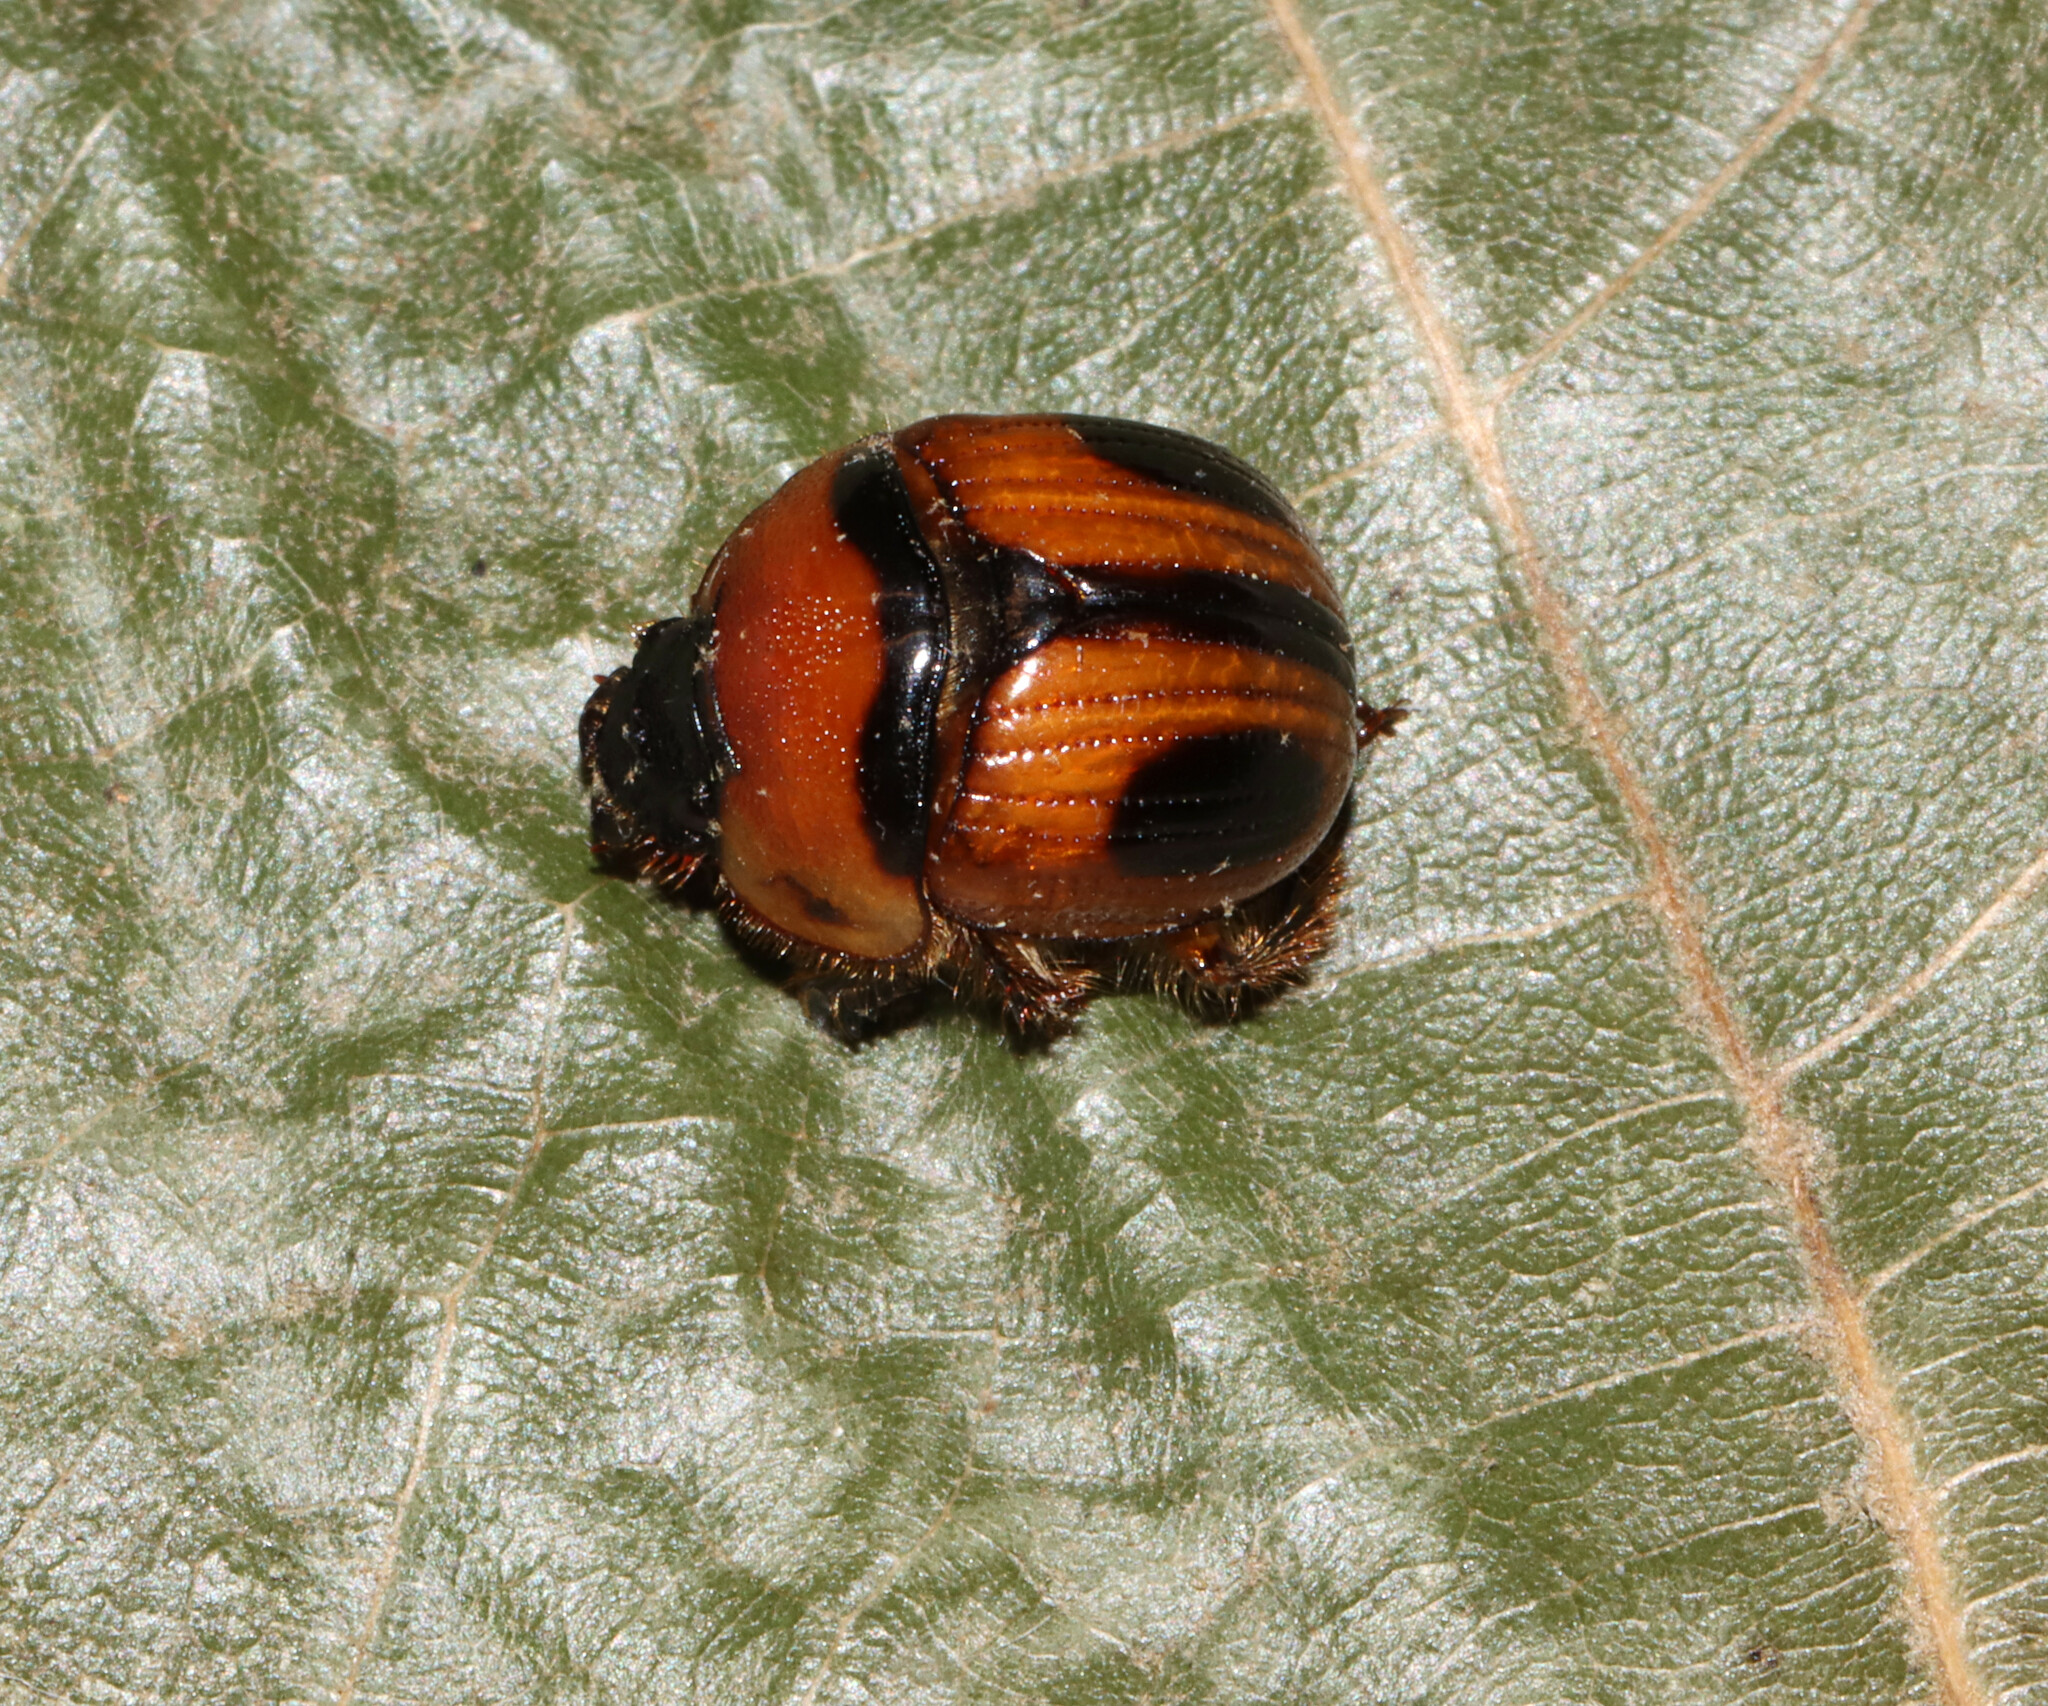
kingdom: Animalia
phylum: Arthropoda
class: Insecta
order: Coleoptera
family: Geotrupidae
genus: Bolbocerosoma
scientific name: Bolbocerosoma confusum
